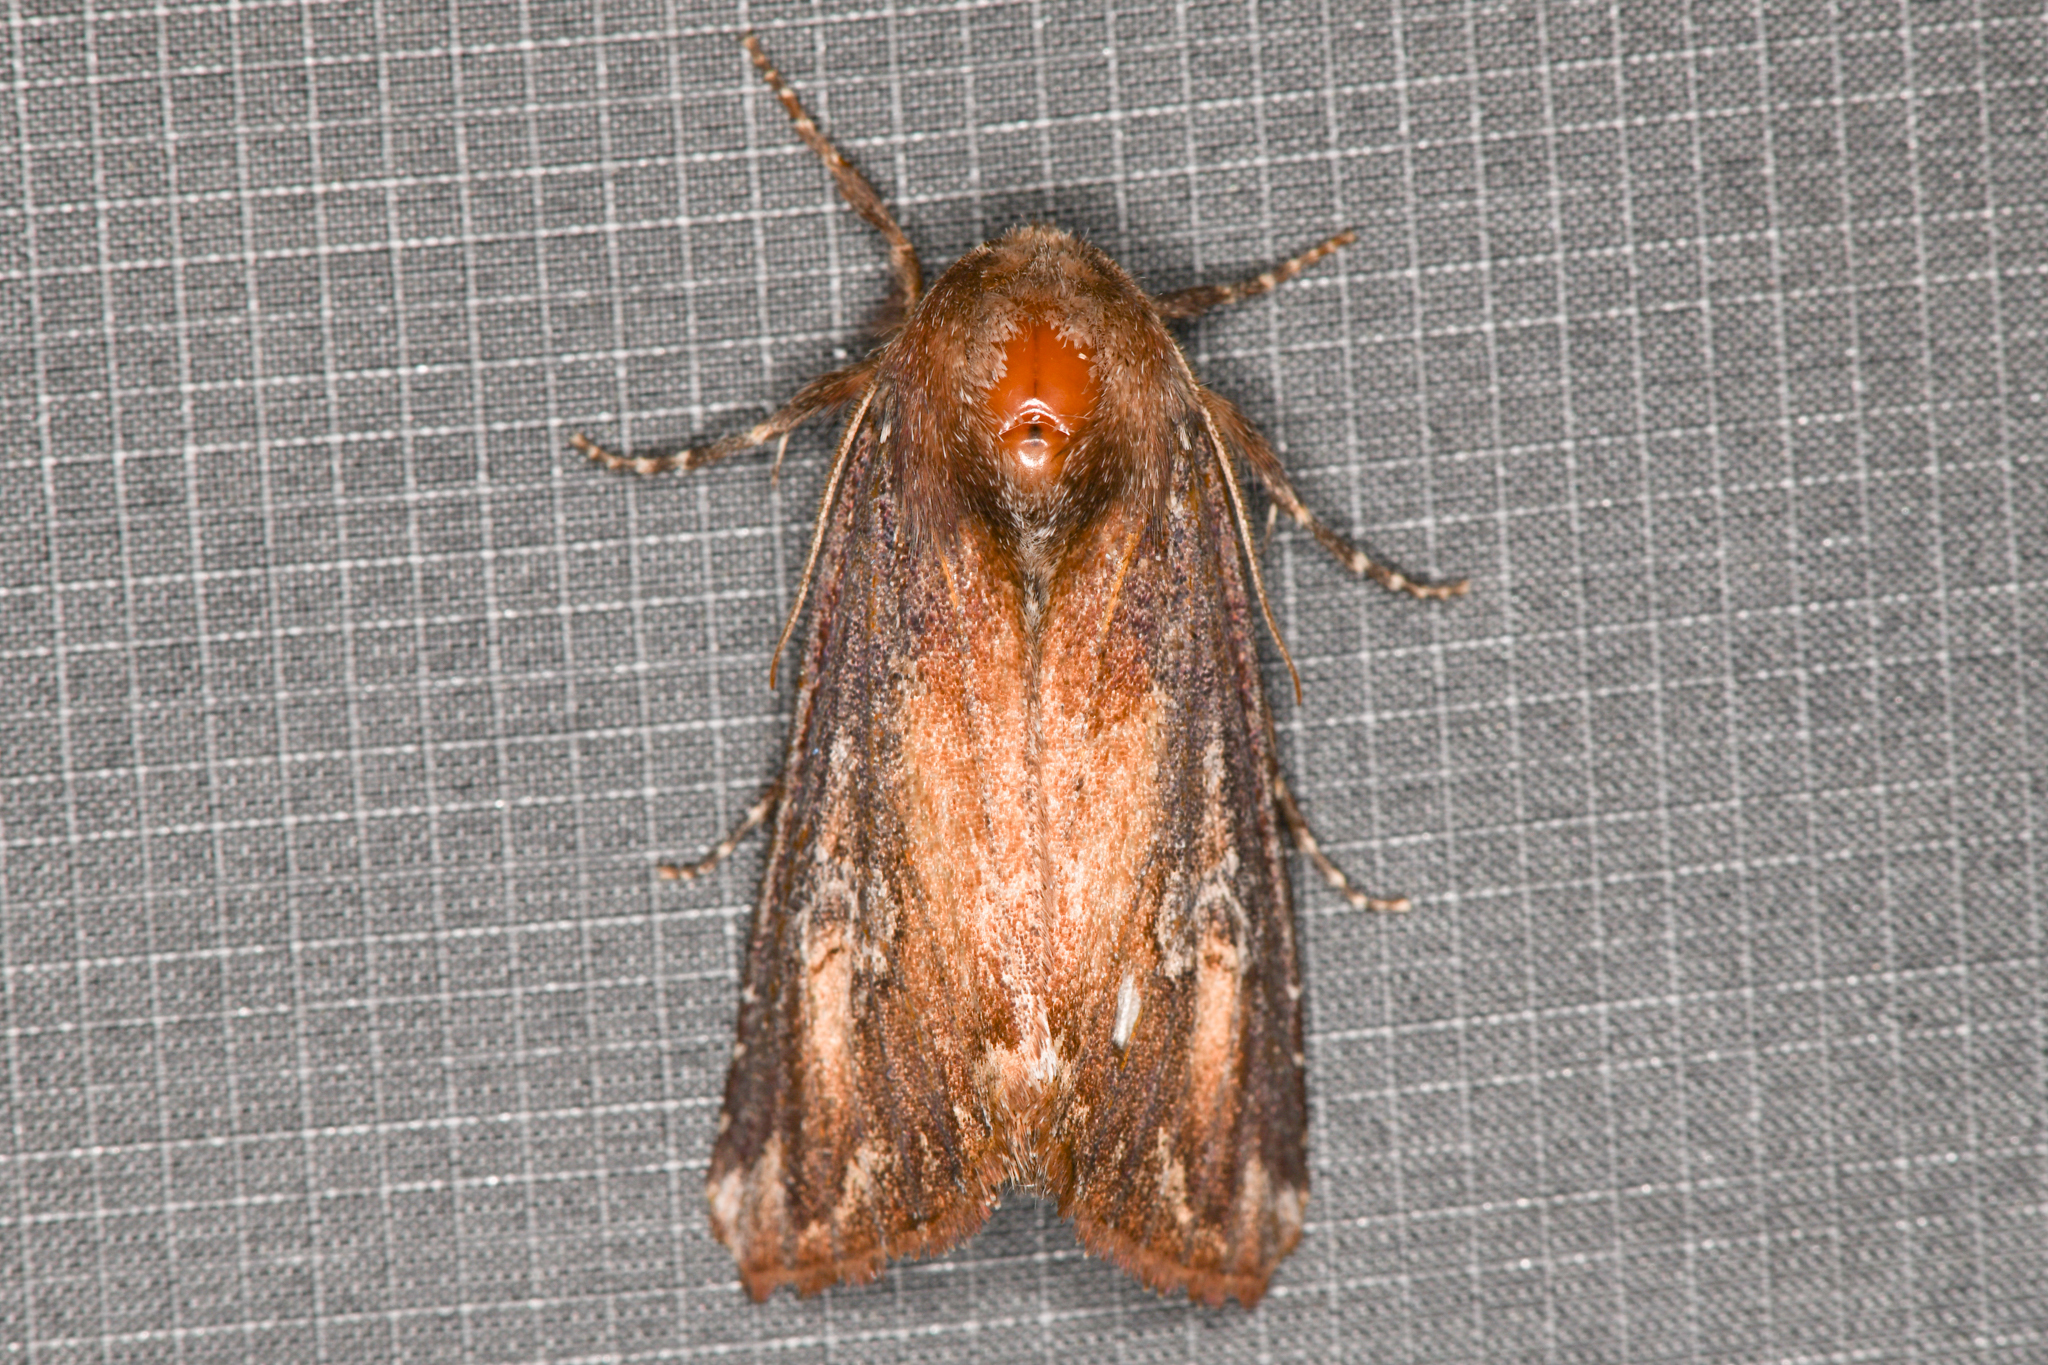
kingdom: Animalia
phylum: Arthropoda
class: Insecta
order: Lepidoptera
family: Noctuidae
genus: Melanchra
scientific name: Melanchra picta
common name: Zebra caterpillar
